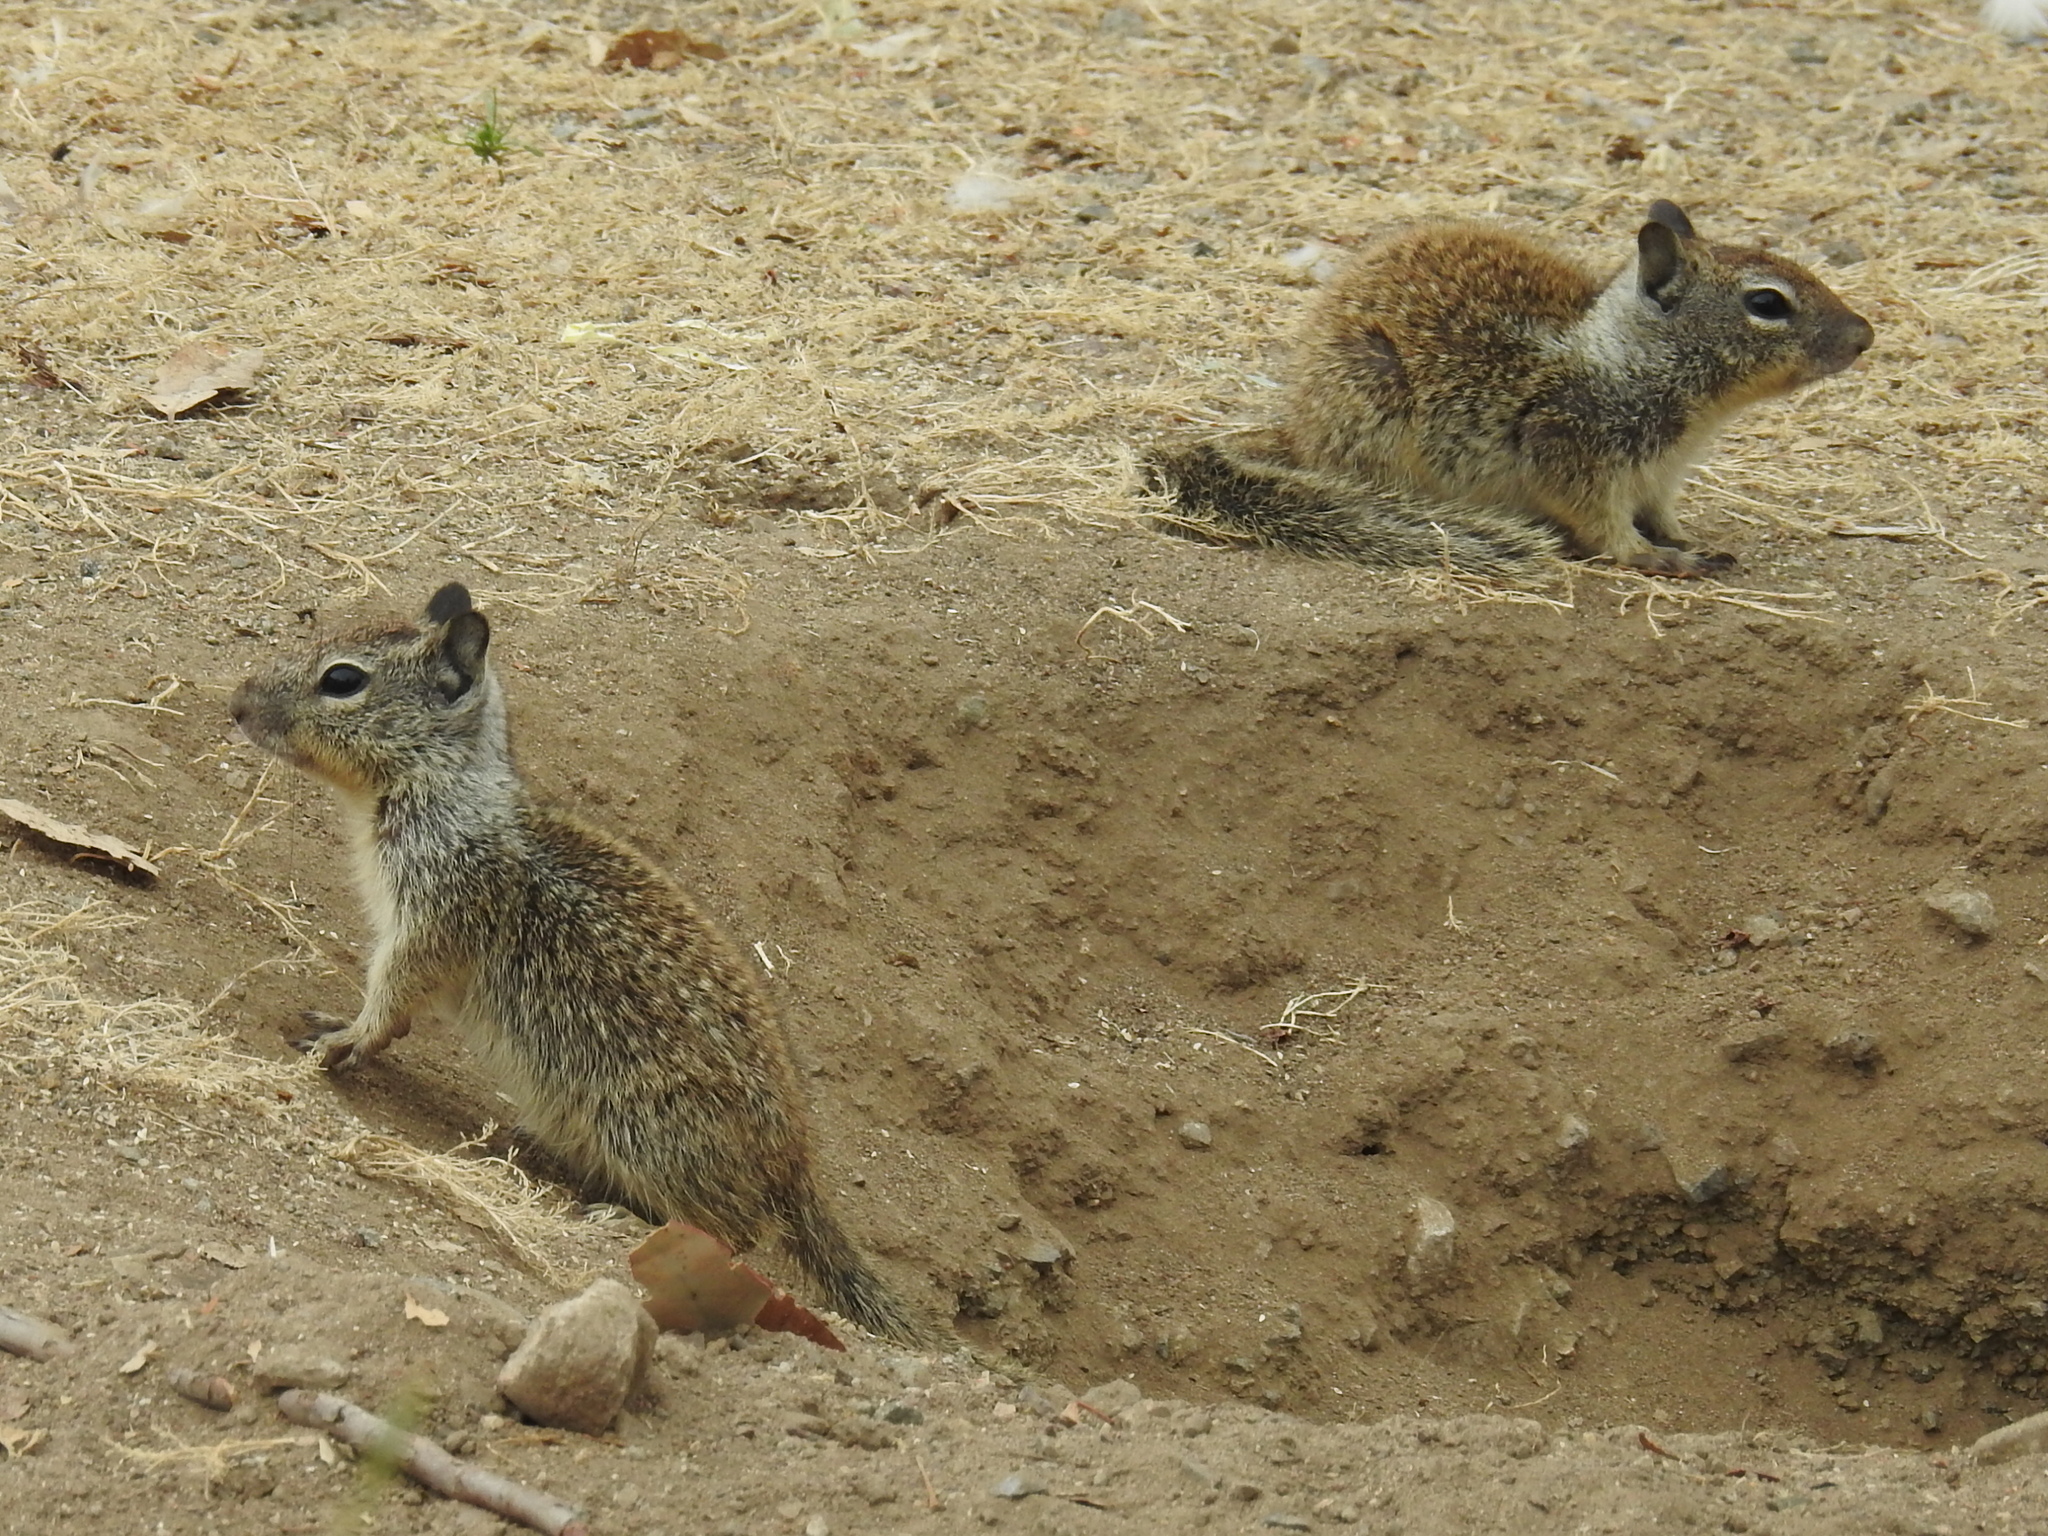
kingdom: Animalia
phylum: Chordata
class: Mammalia
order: Rodentia
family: Sciuridae
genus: Otospermophilus
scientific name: Otospermophilus beecheyi
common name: California ground squirrel
